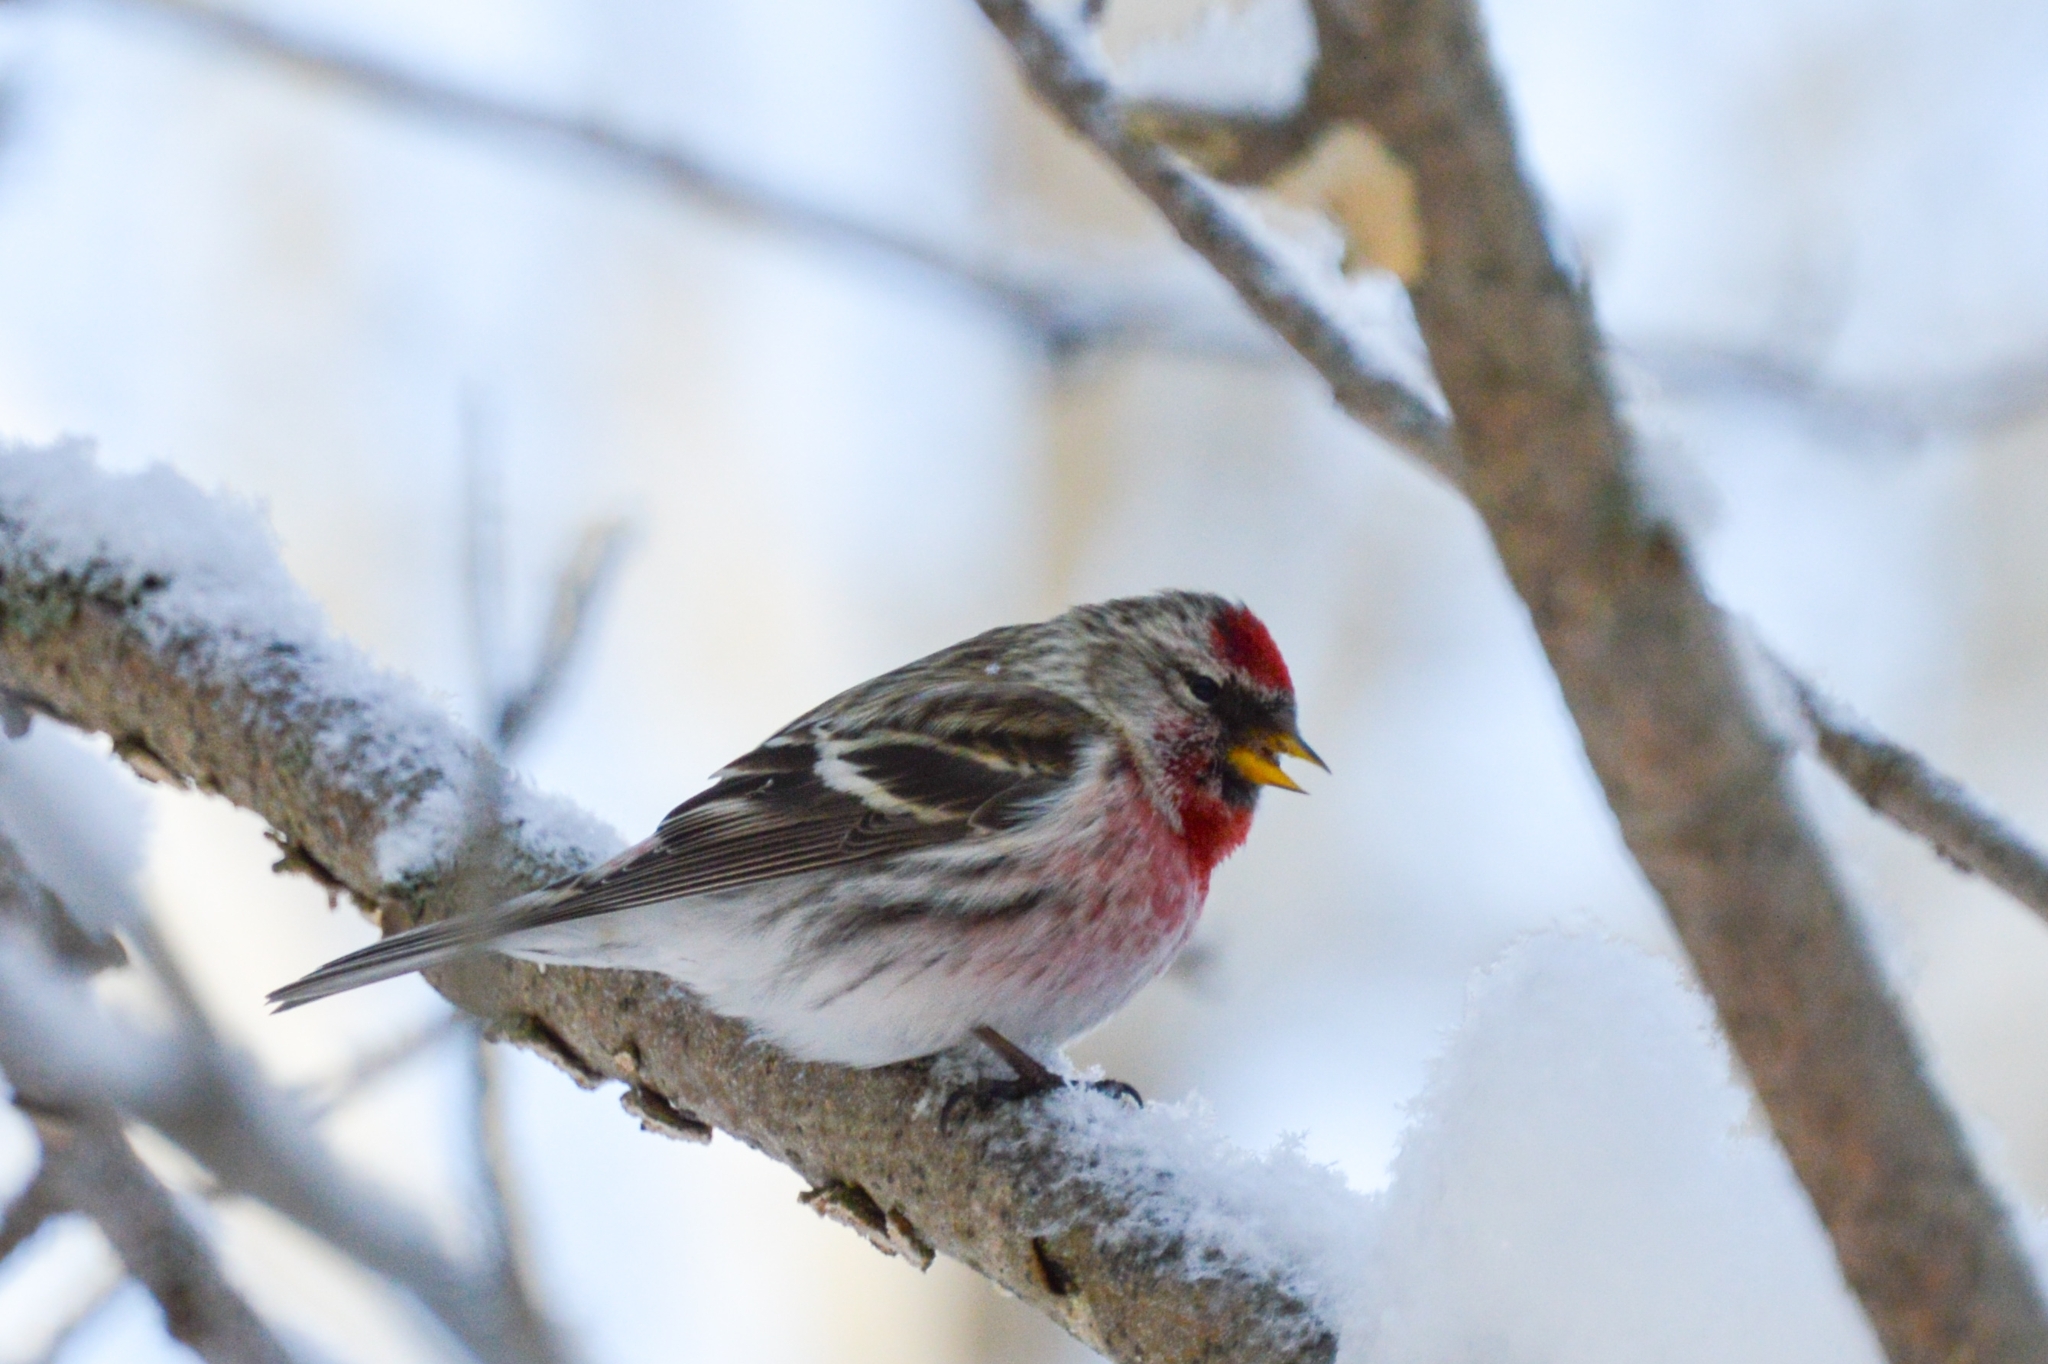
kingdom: Animalia
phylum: Chordata
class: Aves
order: Passeriformes
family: Fringillidae
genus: Acanthis
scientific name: Acanthis flammea
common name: Common redpoll
